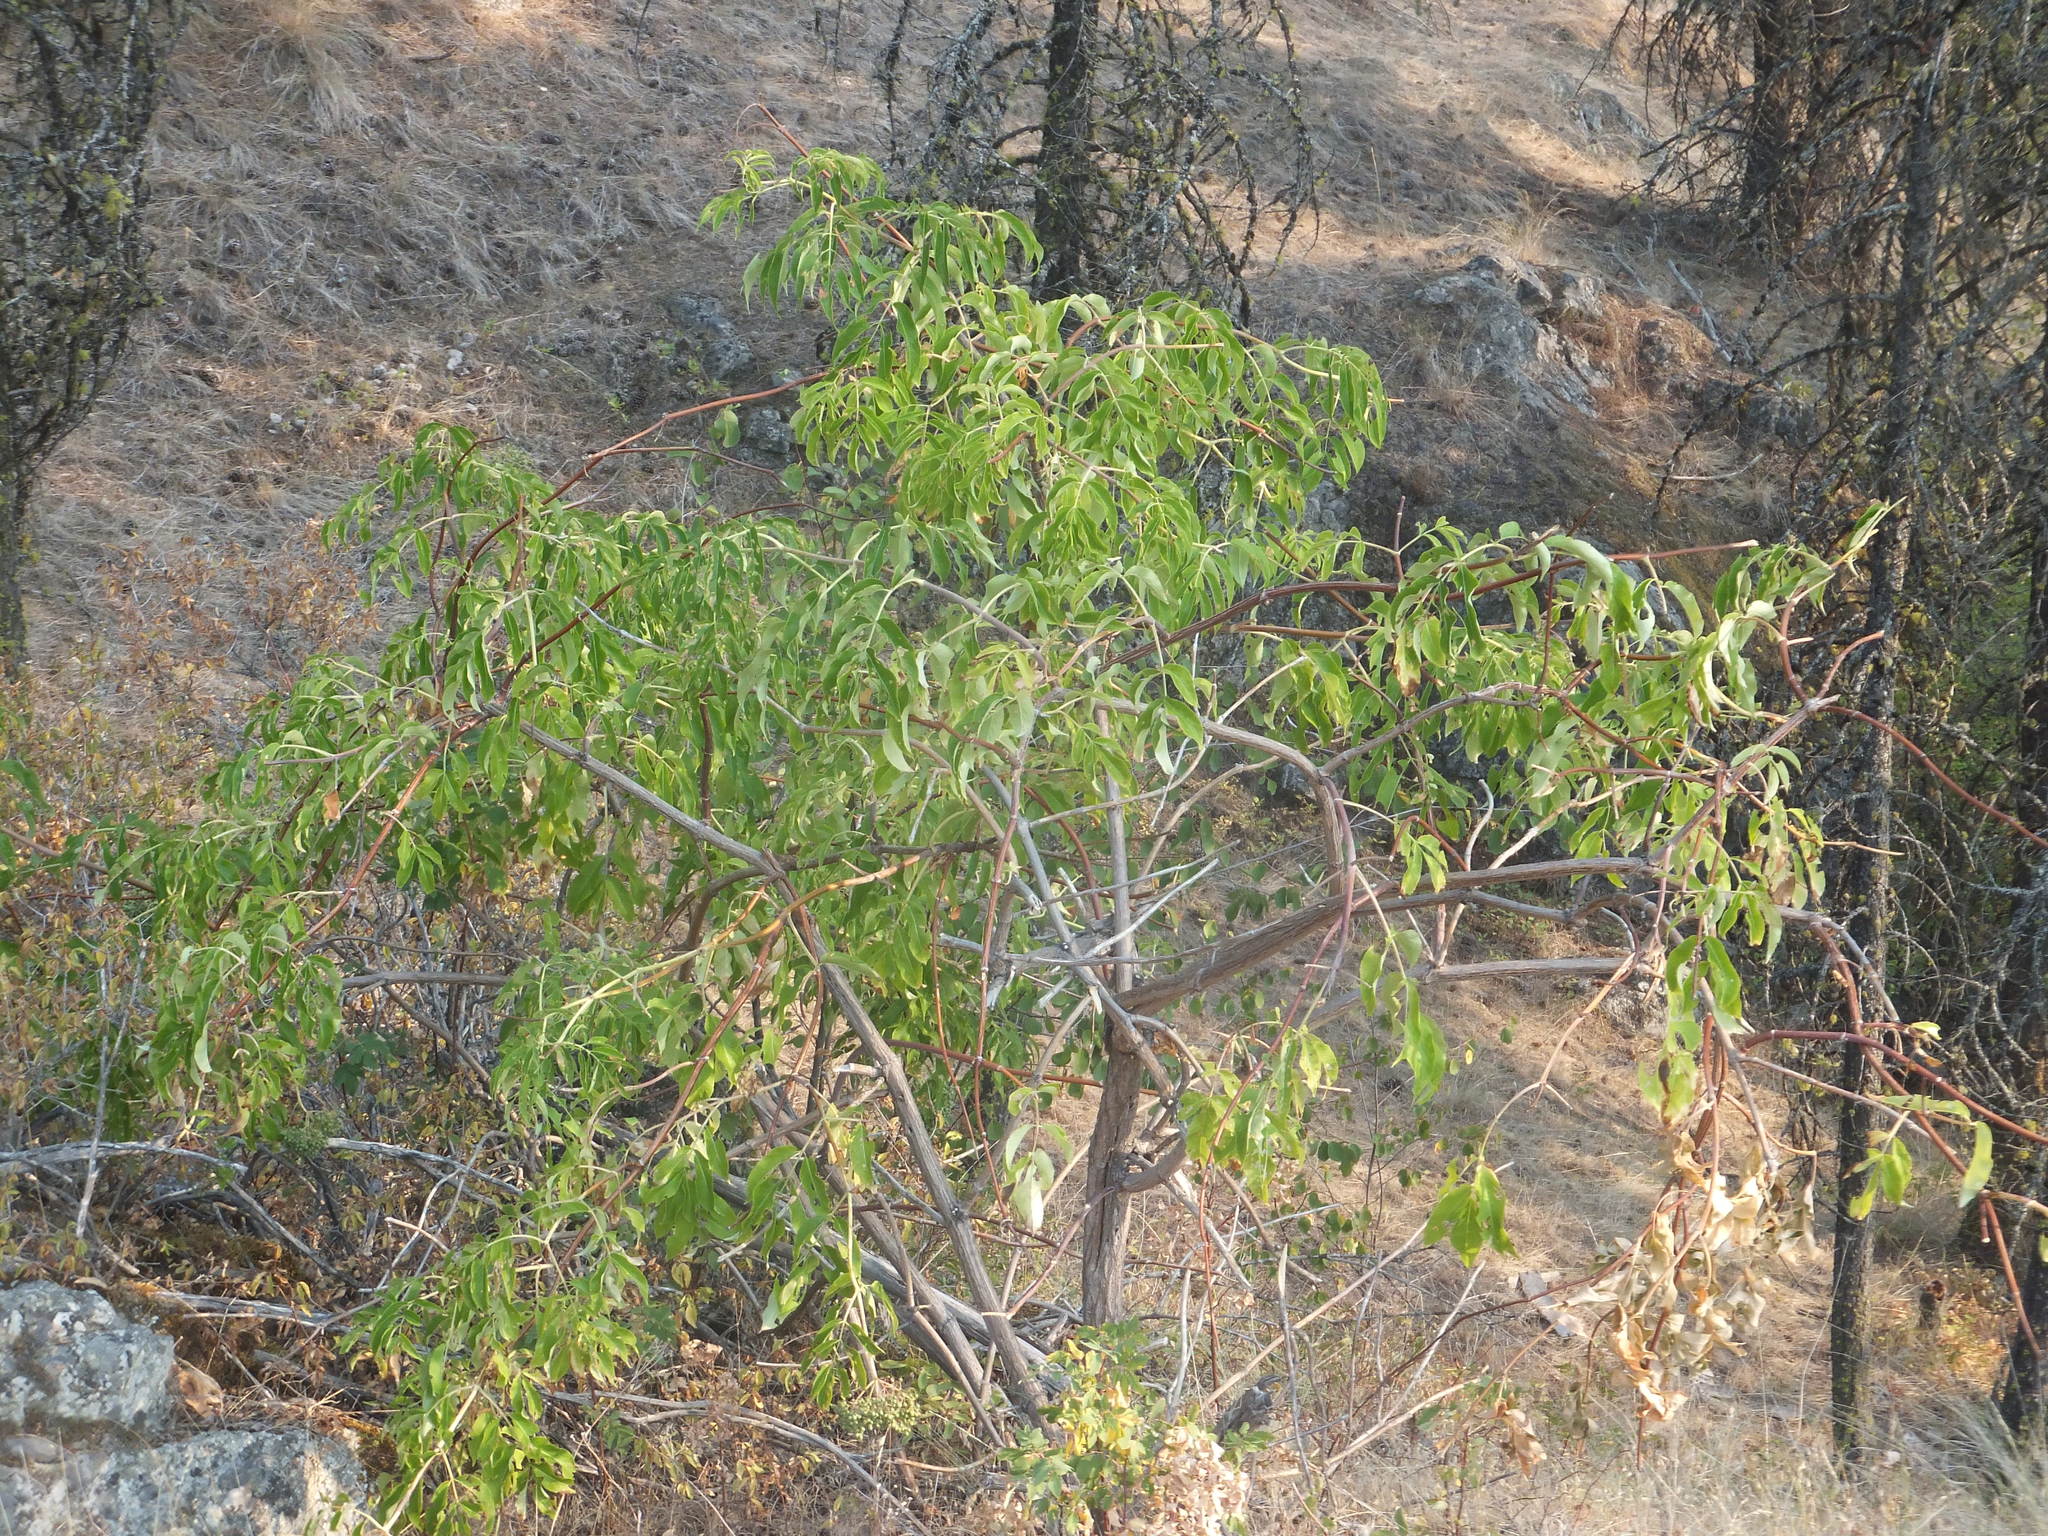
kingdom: Plantae
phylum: Tracheophyta
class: Magnoliopsida
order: Dipsacales
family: Viburnaceae
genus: Sambucus
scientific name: Sambucus cerulea
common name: Blue elder
